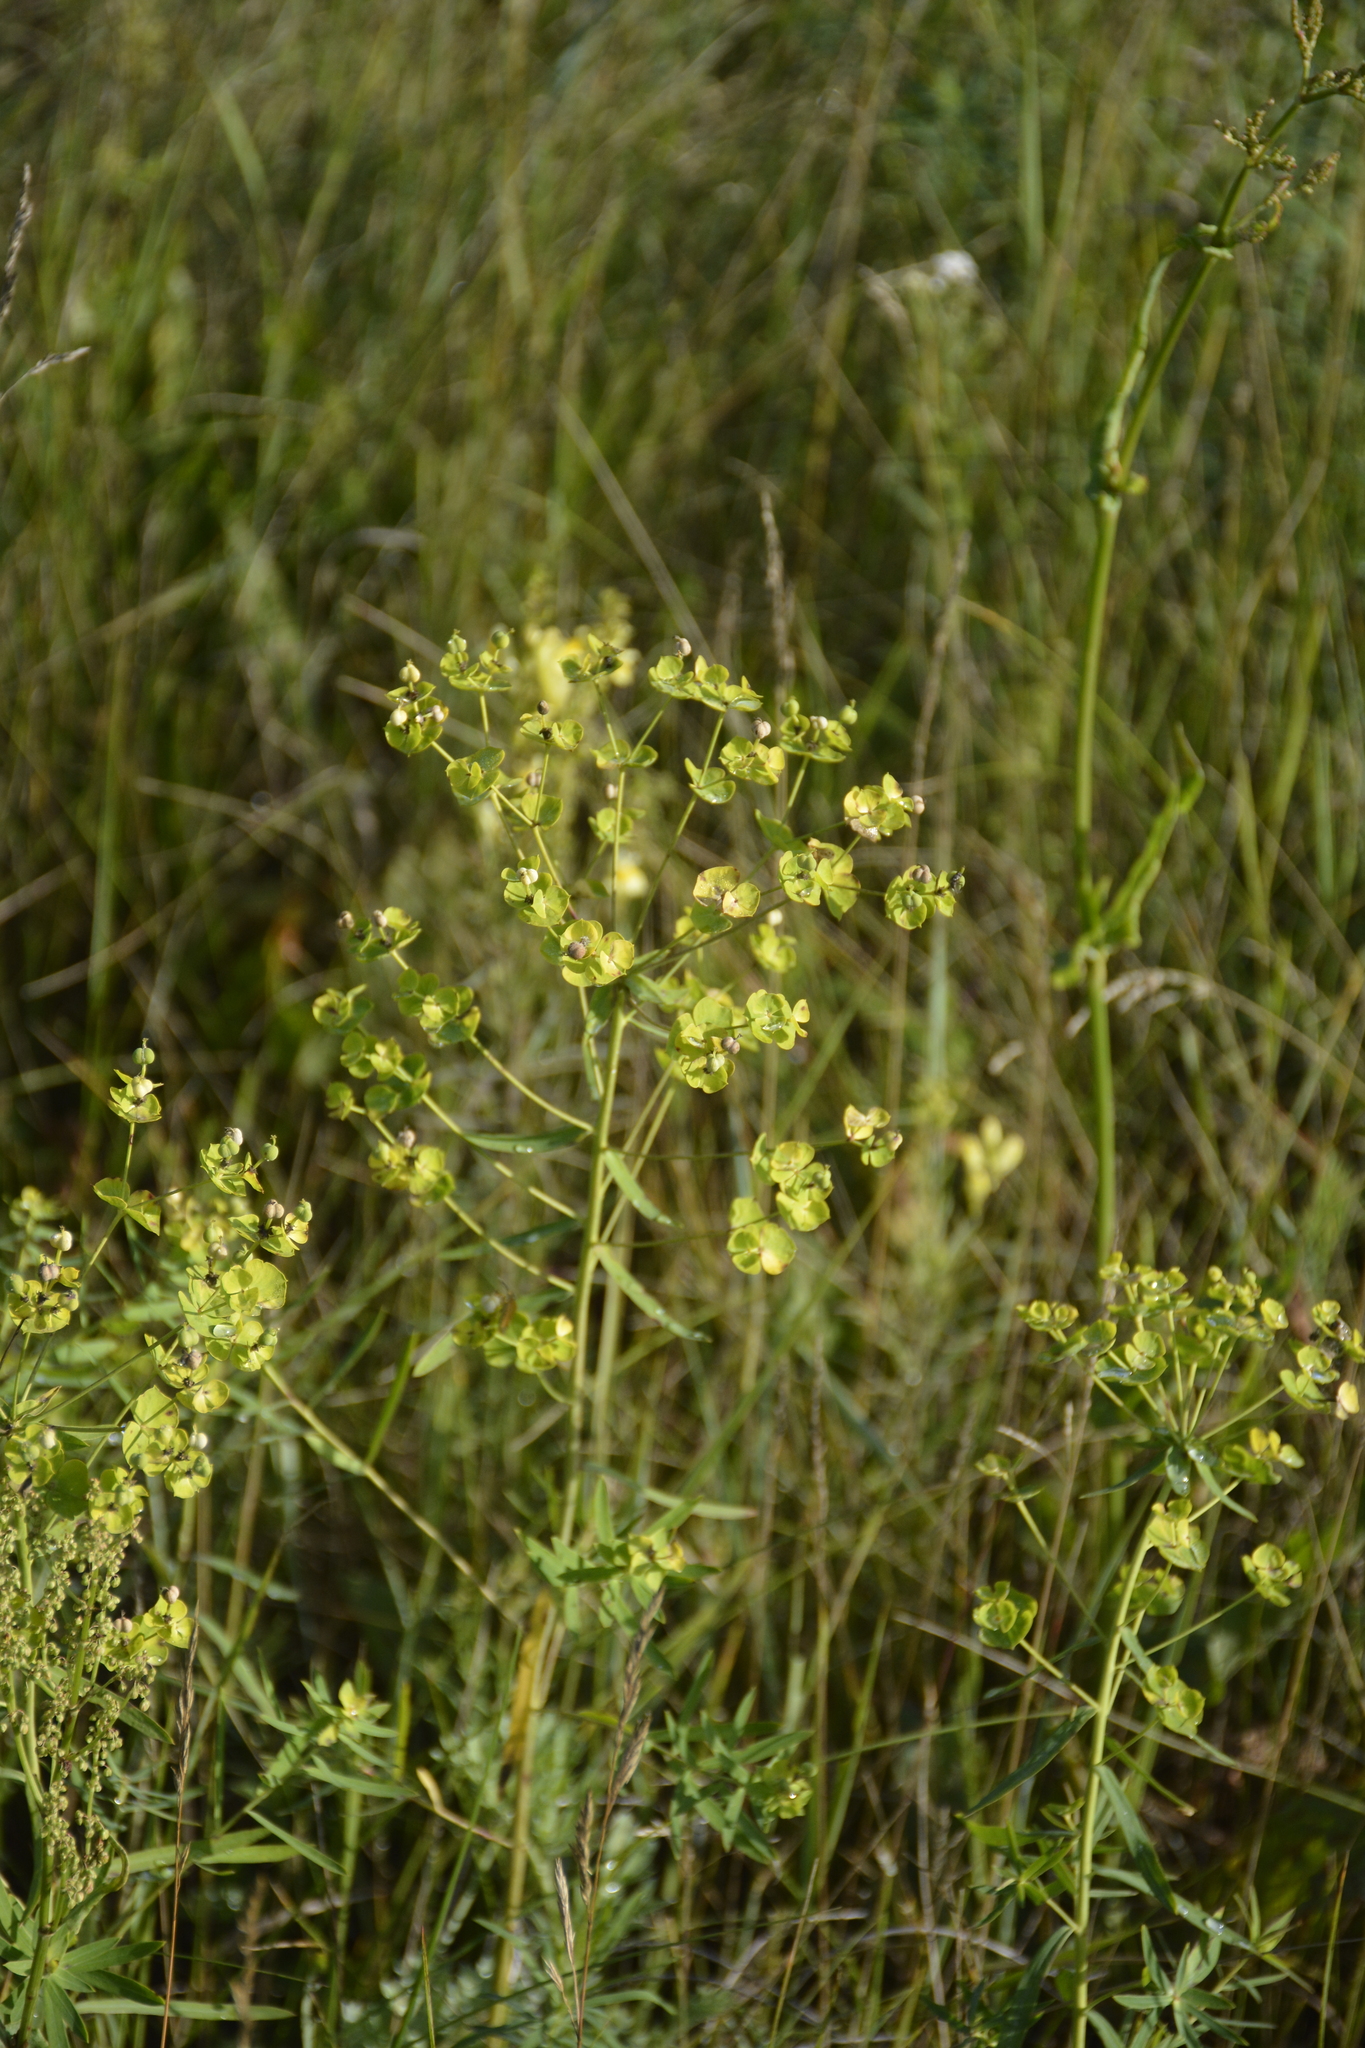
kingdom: Plantae
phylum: Tracheophyta
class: Magnoliopsida
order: Malpighiales
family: Euphorbiaceae
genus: Euphorbia
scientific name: Euphorbia virgata
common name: Leafy spurge
